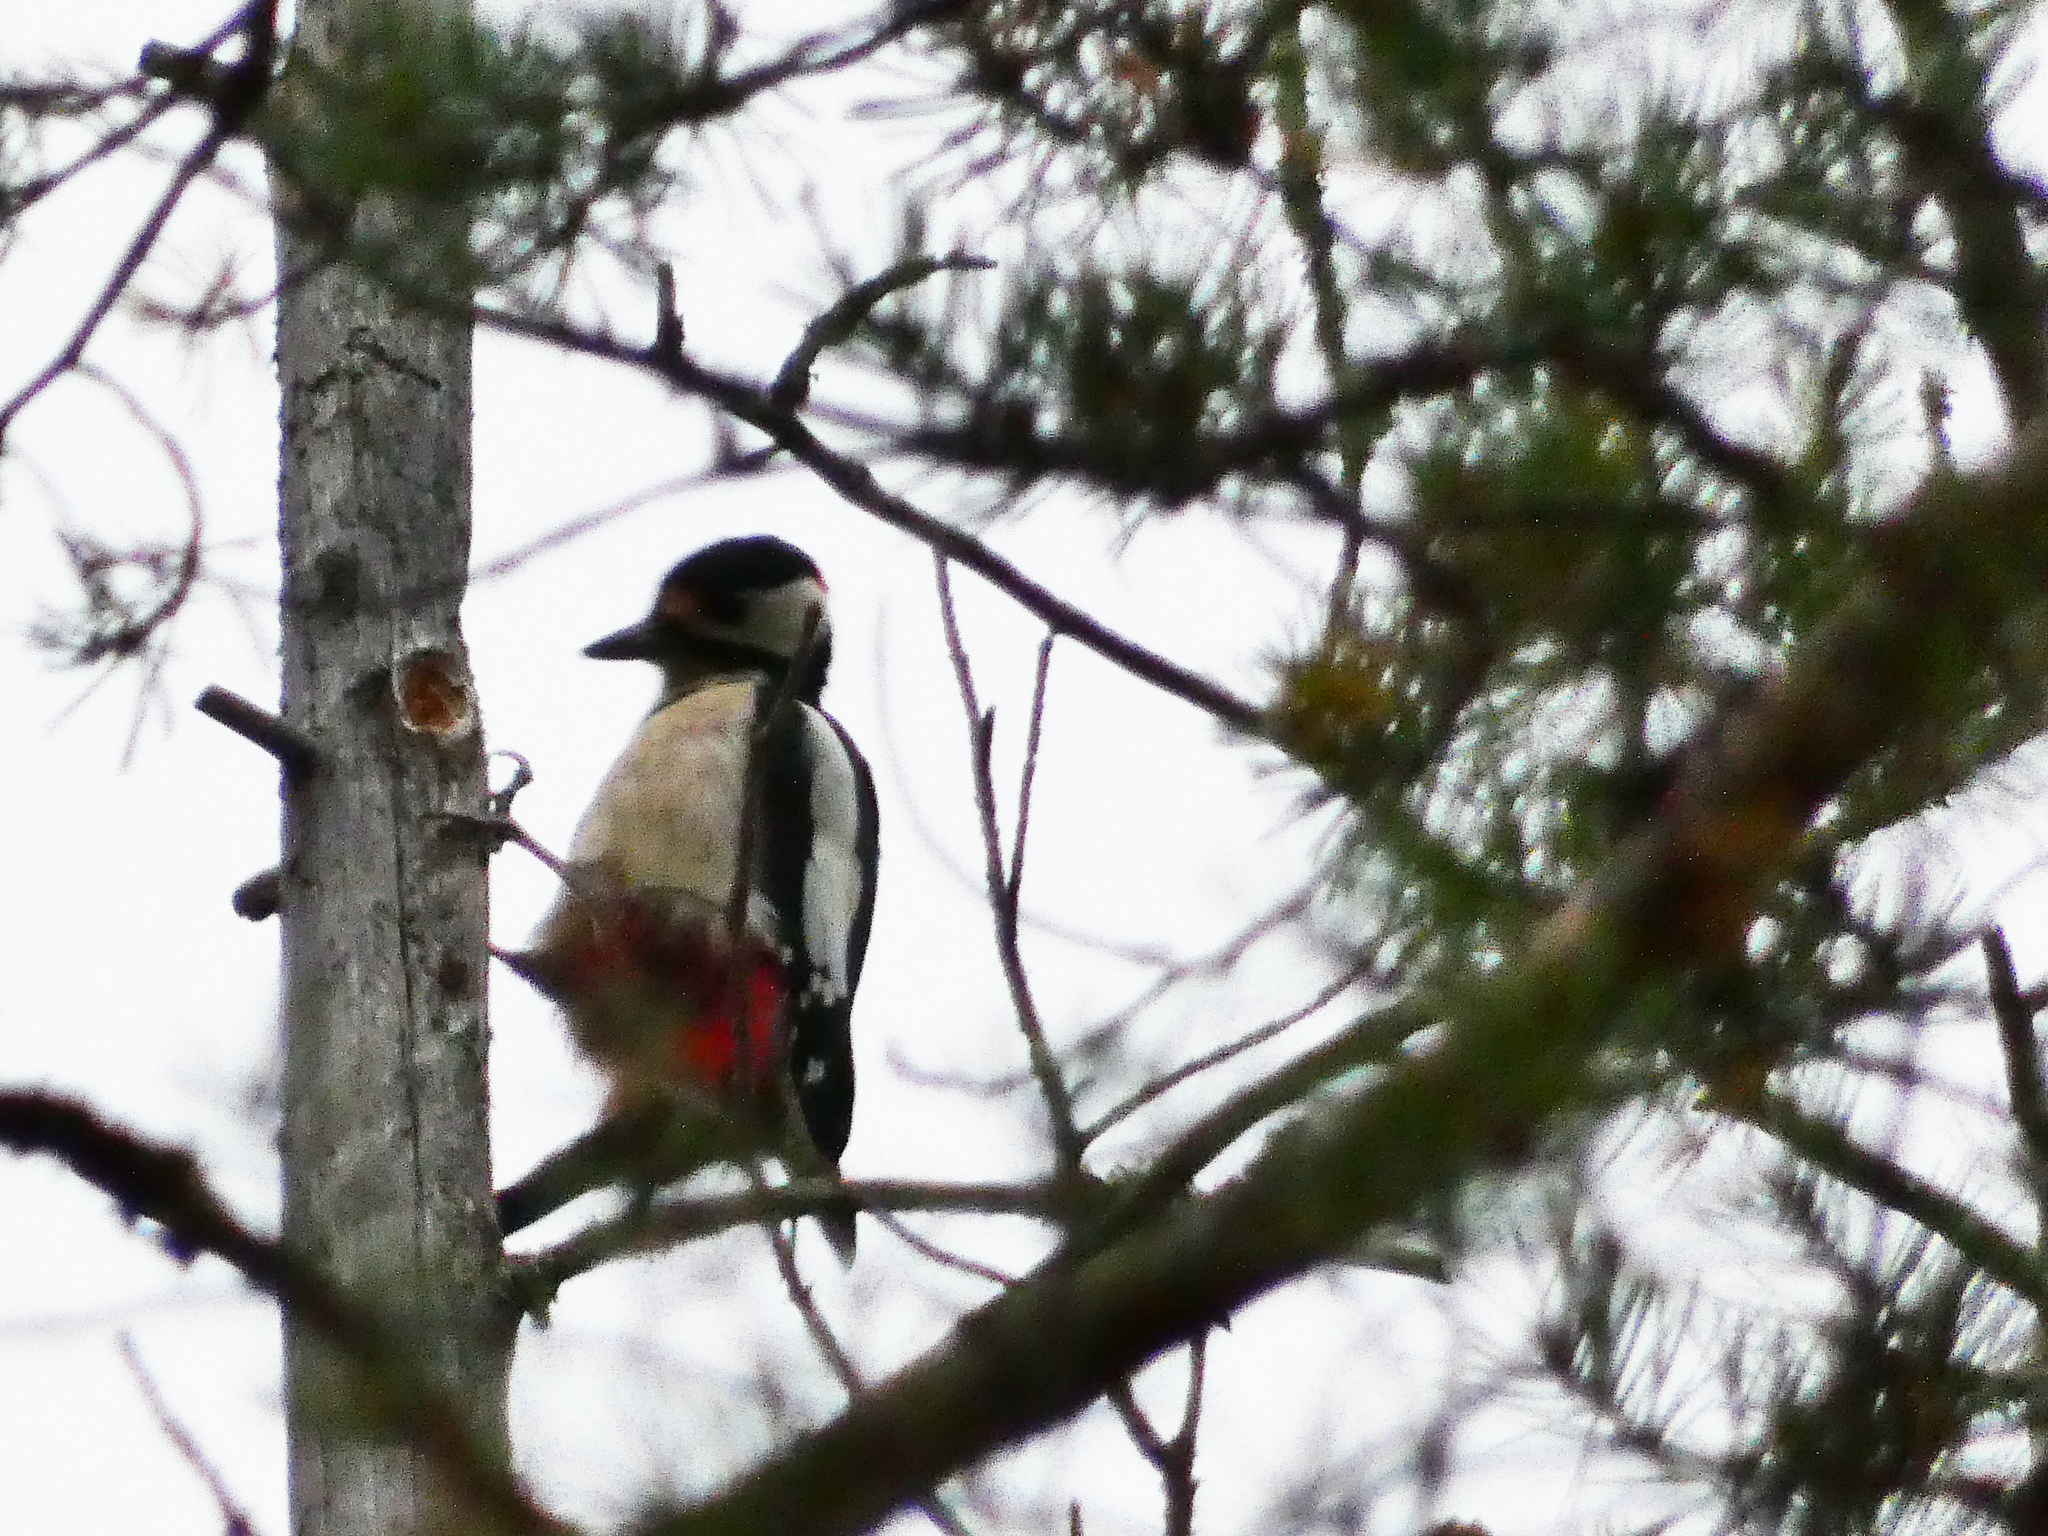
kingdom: Animalia
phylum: Chordata
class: Aves
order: Piciformes
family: Picidae
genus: Dendrocopos
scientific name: Dendrocopos major
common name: Great spotted woodpecker
